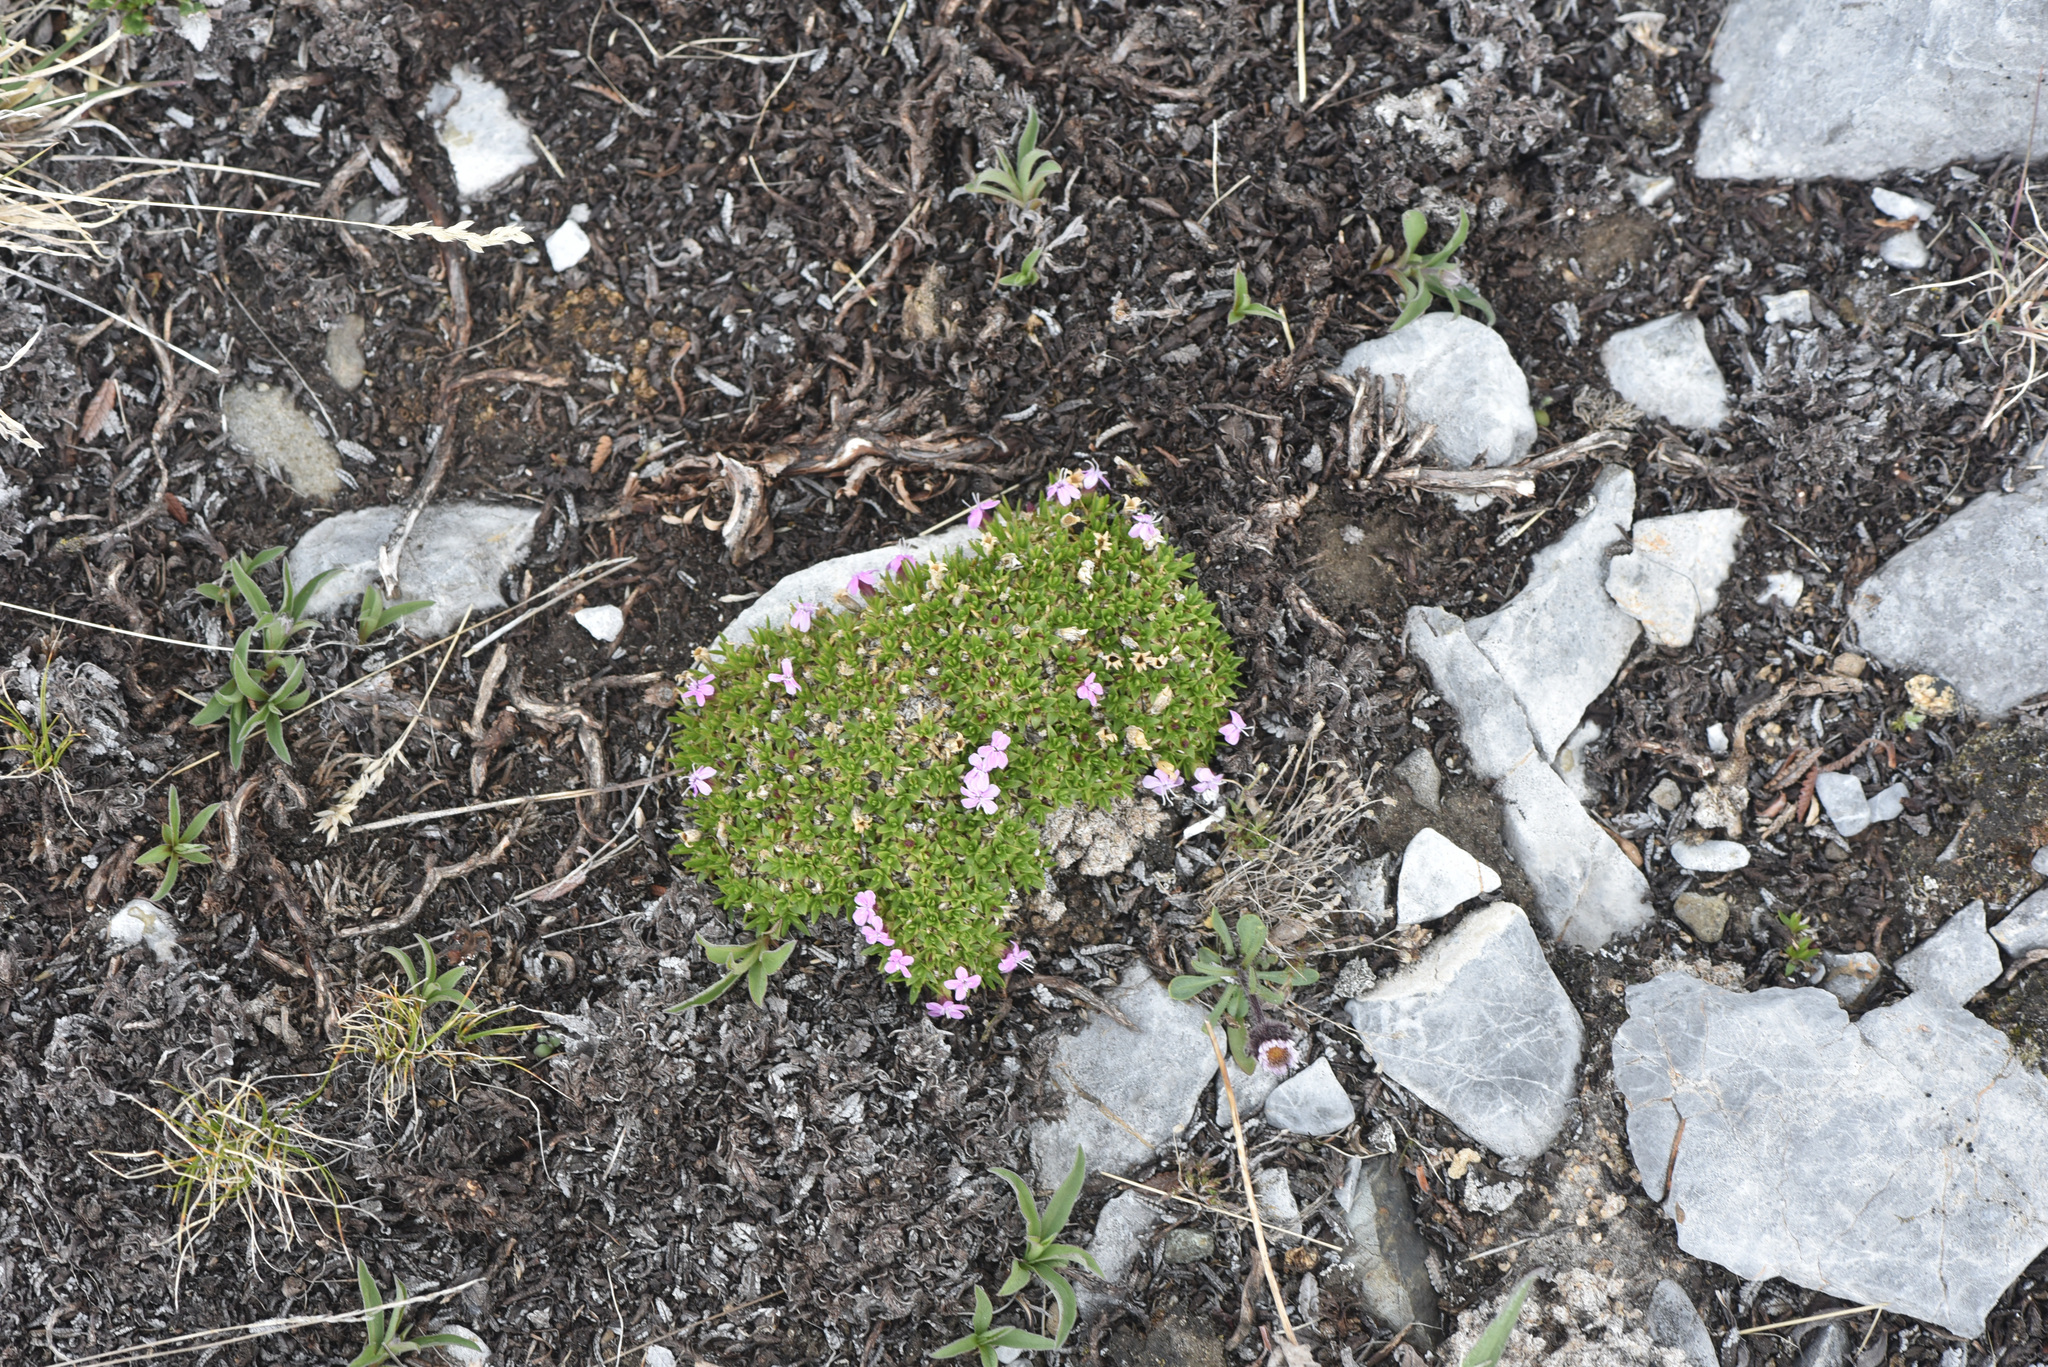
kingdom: Plantae
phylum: Tracheophyta
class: Magnoliopsida
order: Caryophyllales
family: Caryophyllaceae
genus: Silene
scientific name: Silene acaulis
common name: Moss campion
